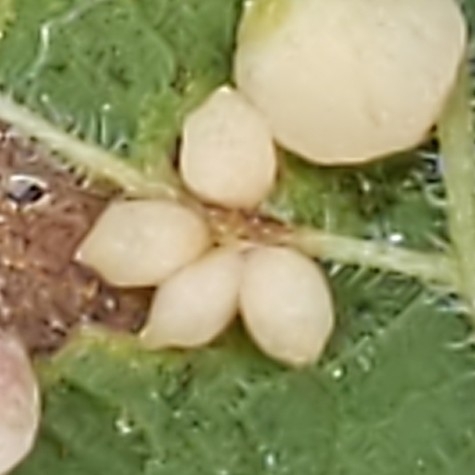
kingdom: Animalia
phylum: Arthropoda
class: Insecta
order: Diptera
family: Cecidomyiidae
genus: Celticecis
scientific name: Celticecis globosa
